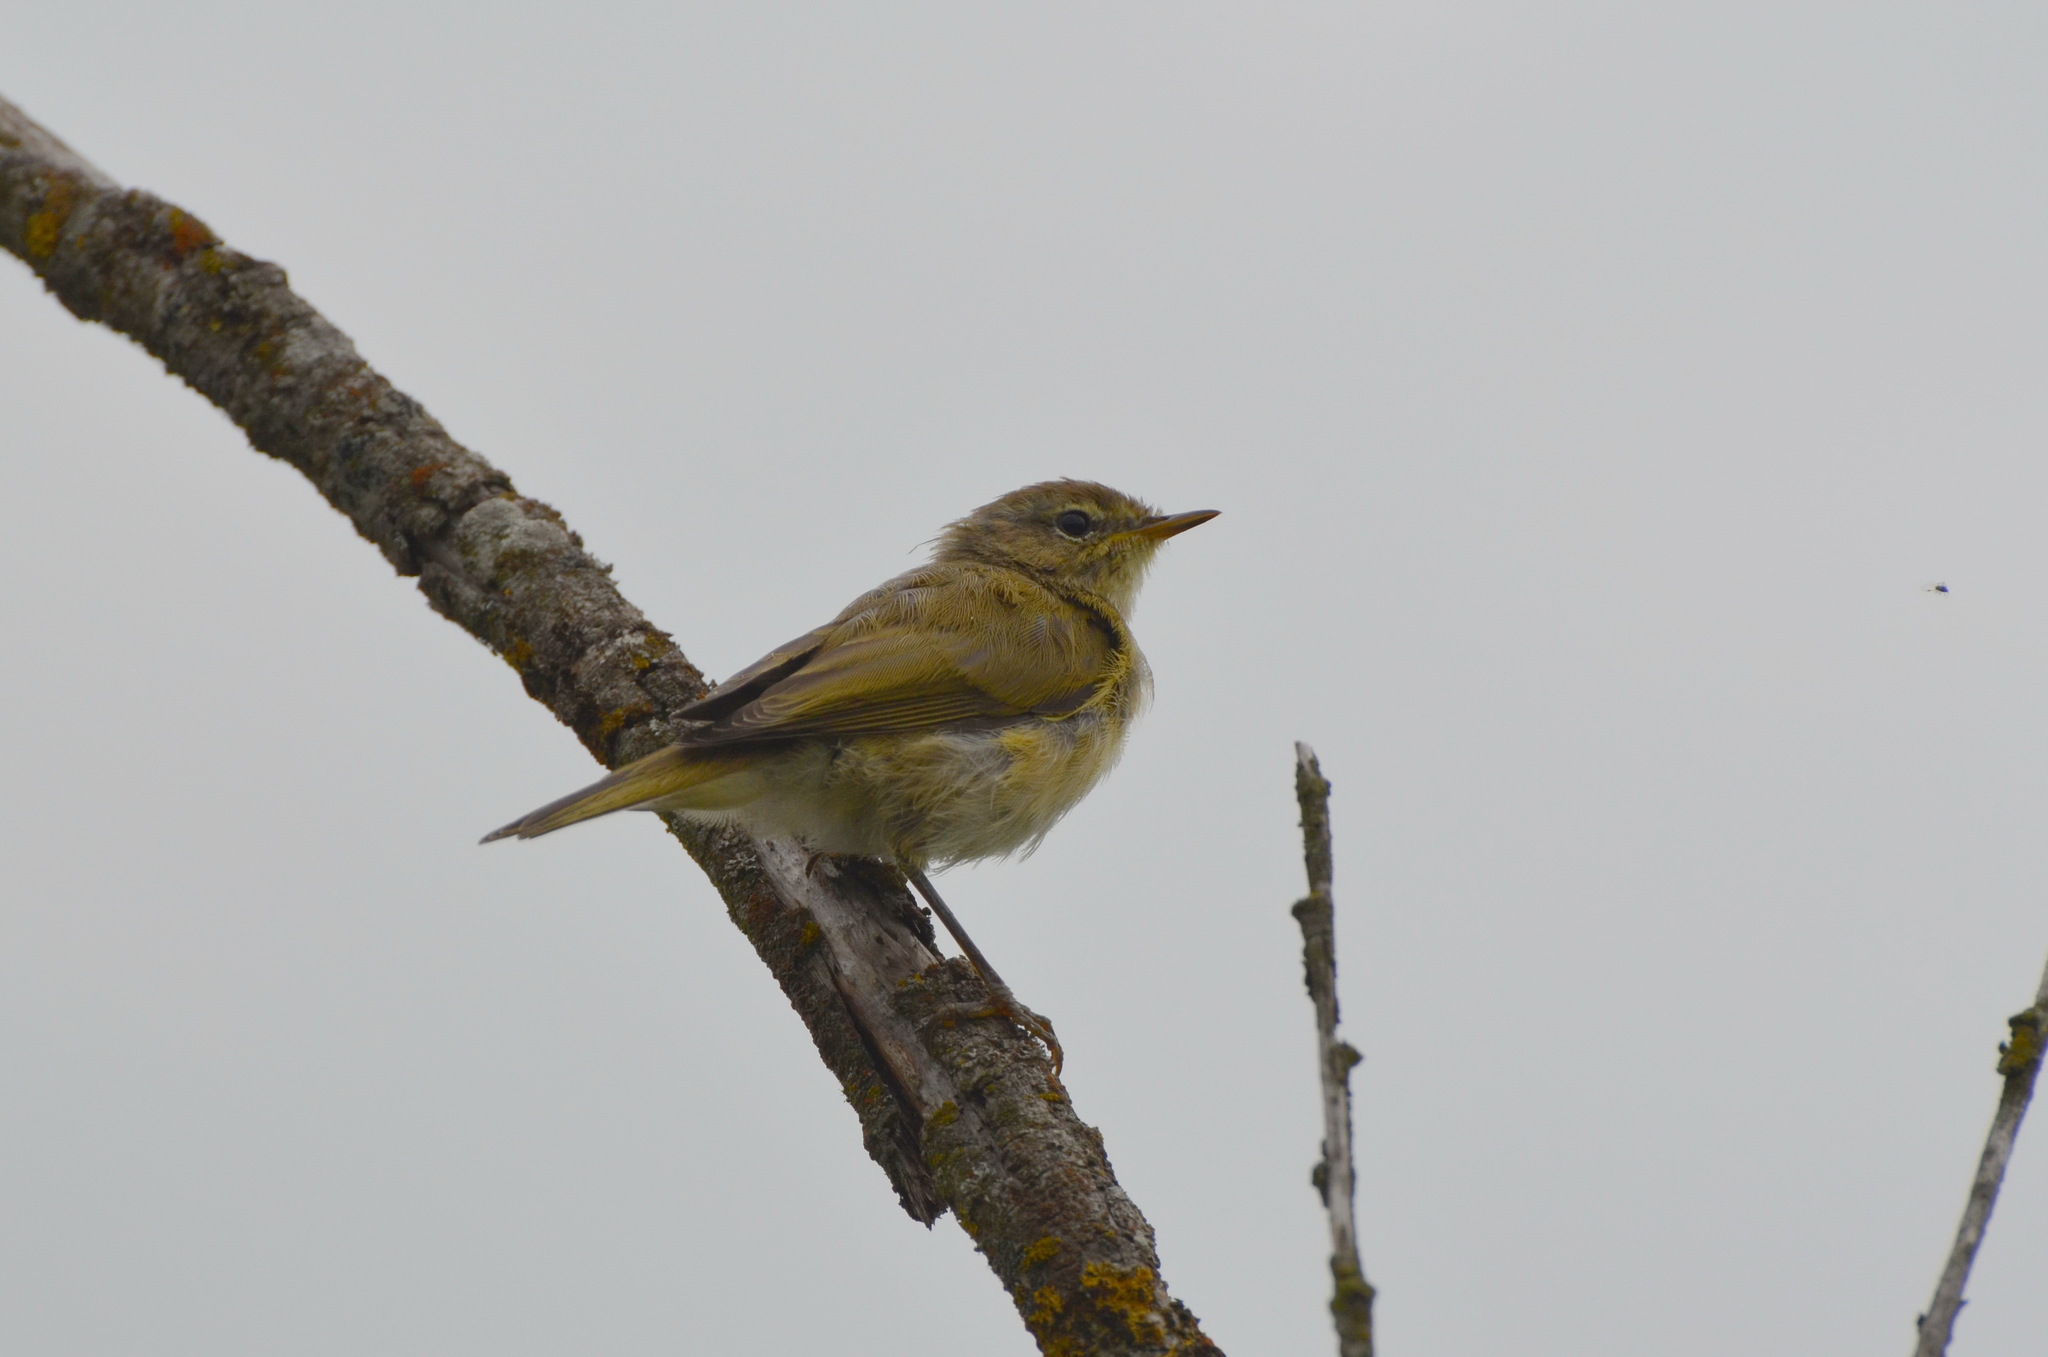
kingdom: Animalia
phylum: Chordata
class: Aves
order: Passeriformes
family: Phylloscopidae
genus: Phylloscopus
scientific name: Phylloscopus collybita
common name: Common chiffchaff
